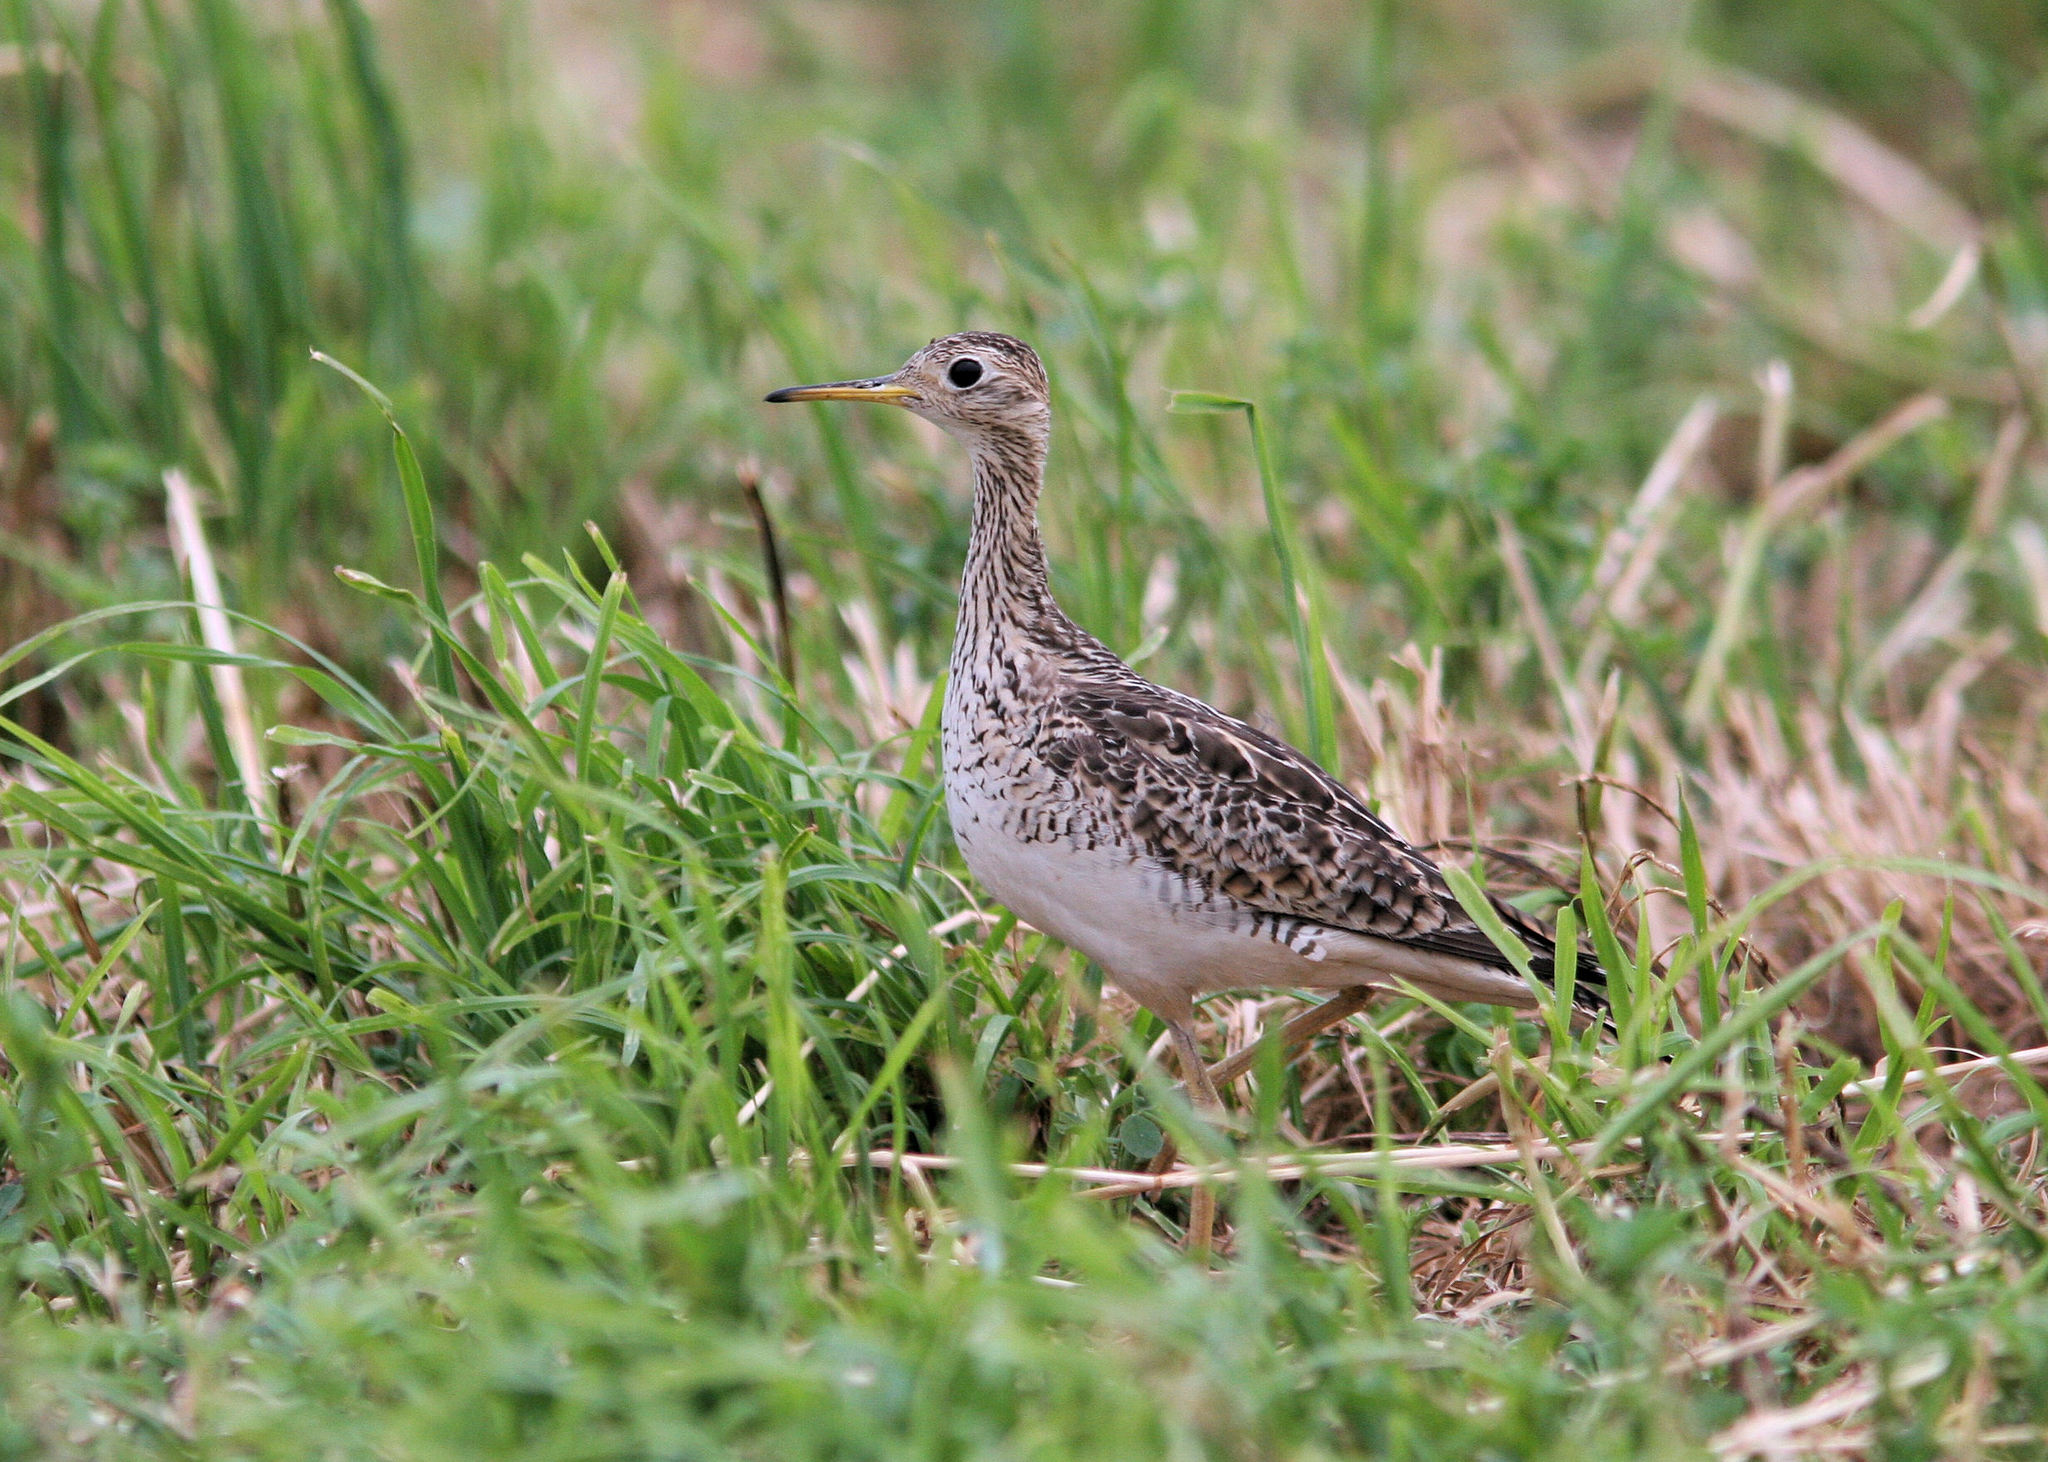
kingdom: Animalia
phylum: Chordata
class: Aves
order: Charadriiformes
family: Scolopacidae
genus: Bartramia
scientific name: Bartramia longicauda
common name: Upland sandpiper
